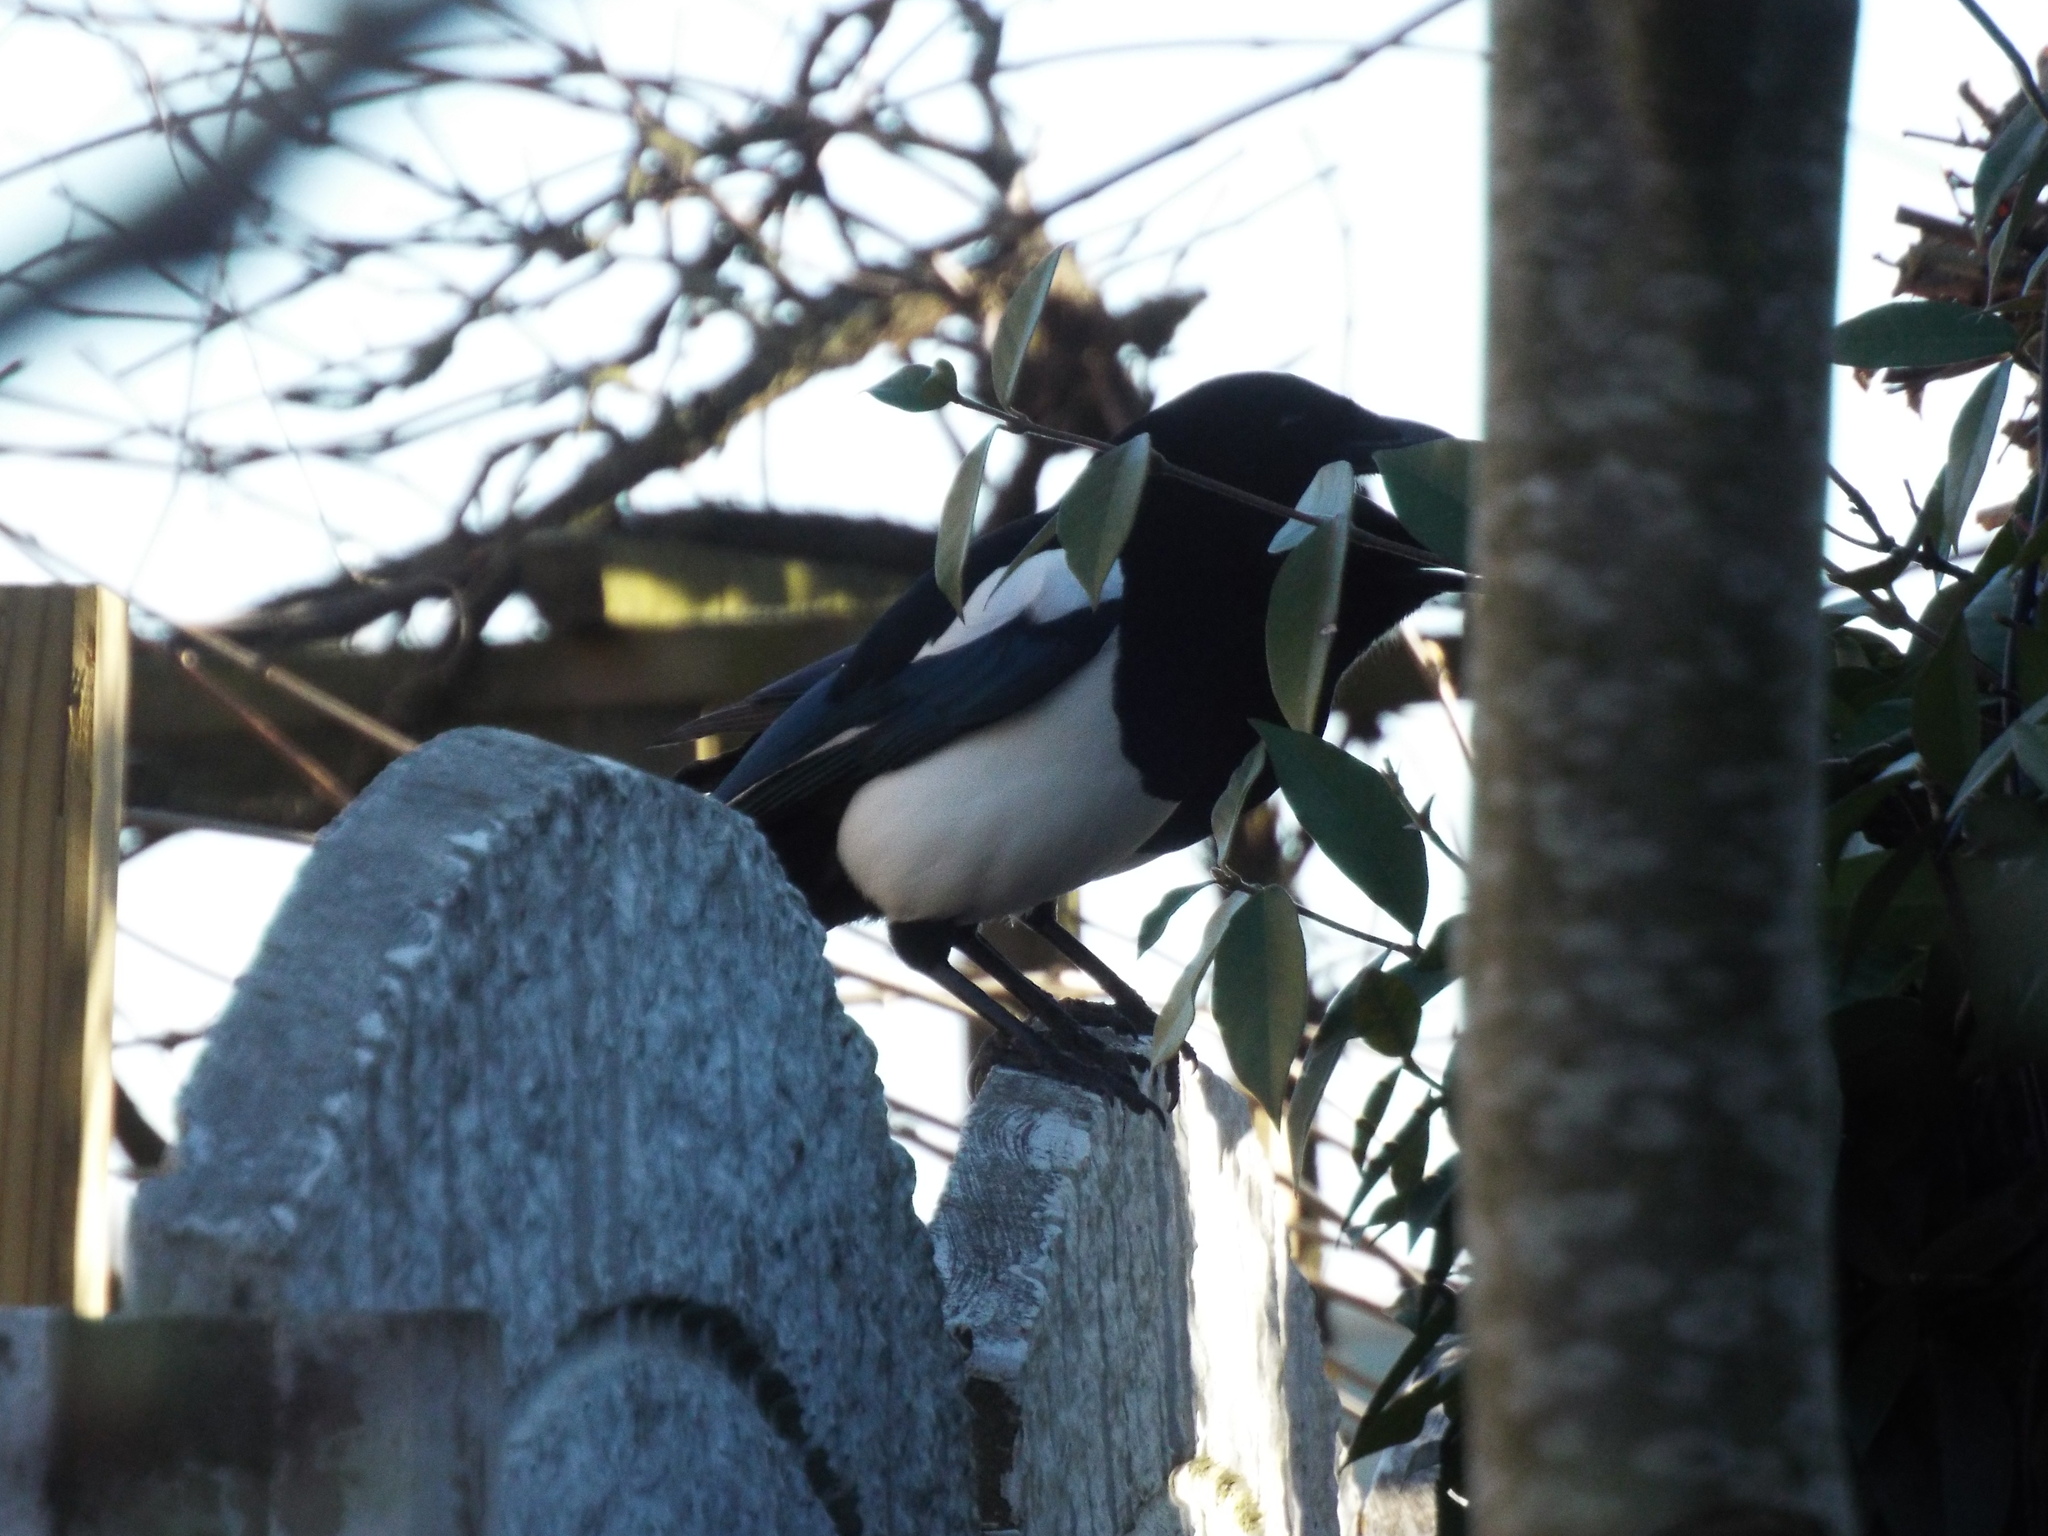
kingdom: Animalia
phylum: Chordata
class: Aves
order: Passeriformes
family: Corvidae
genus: Pica
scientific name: Pica pica
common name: Eurasian magpie
